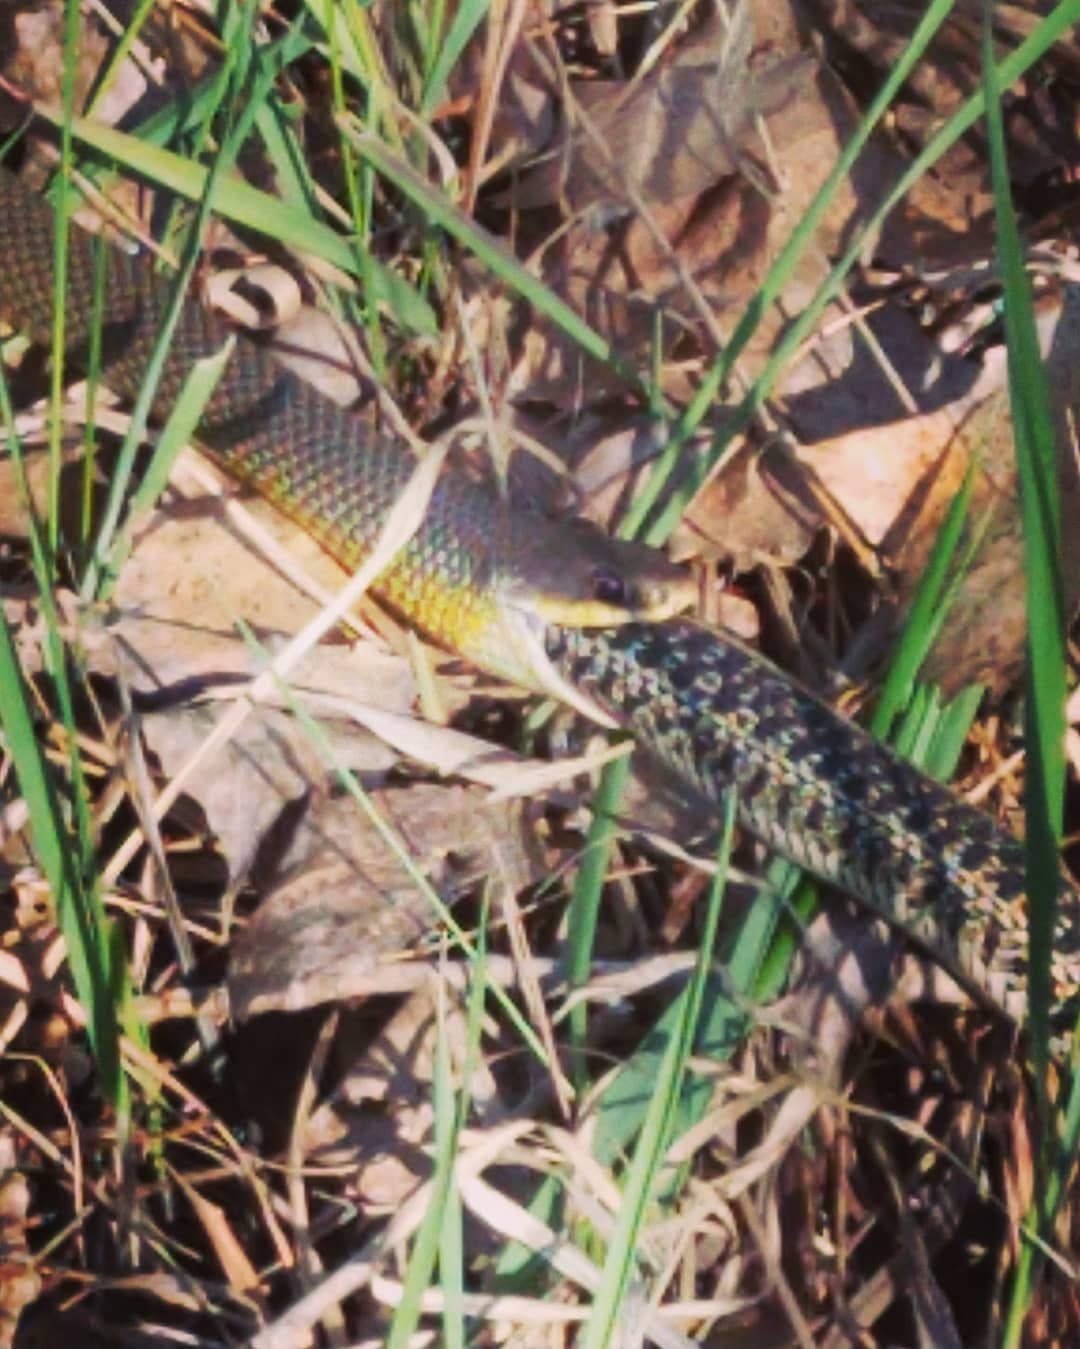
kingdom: Animalia
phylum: Chordata
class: Squamata
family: Colubridae
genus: Thamnophis
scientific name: Thamnophis radix
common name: Plains garter snake
